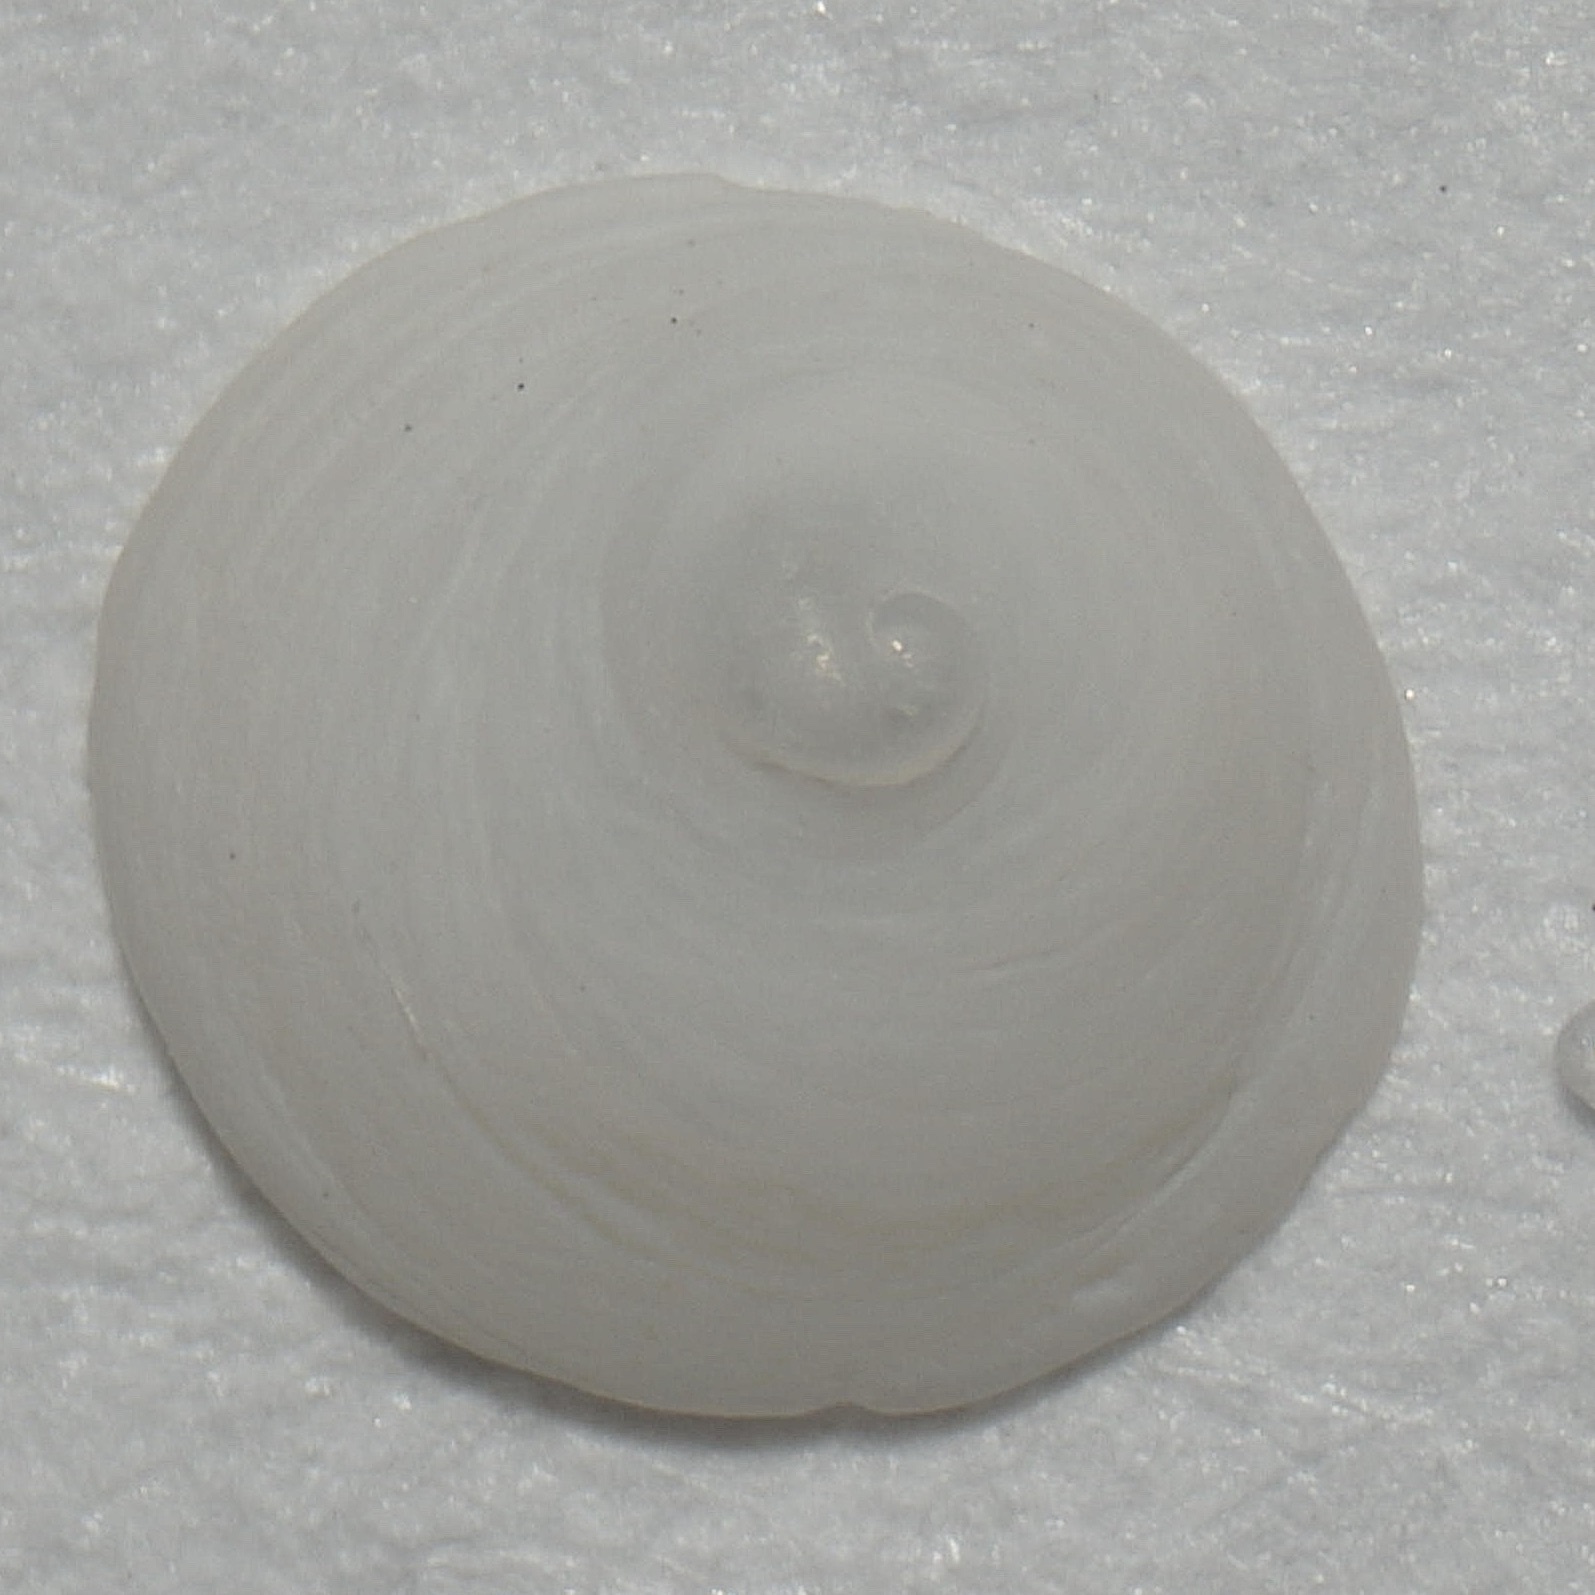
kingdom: Animalia
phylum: Mollusca
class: Gastropoda
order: Littorinimorpha
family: Calyptraeidae
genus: Calyptraea
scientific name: Calyptraea centralis
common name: Circular chinese hat
